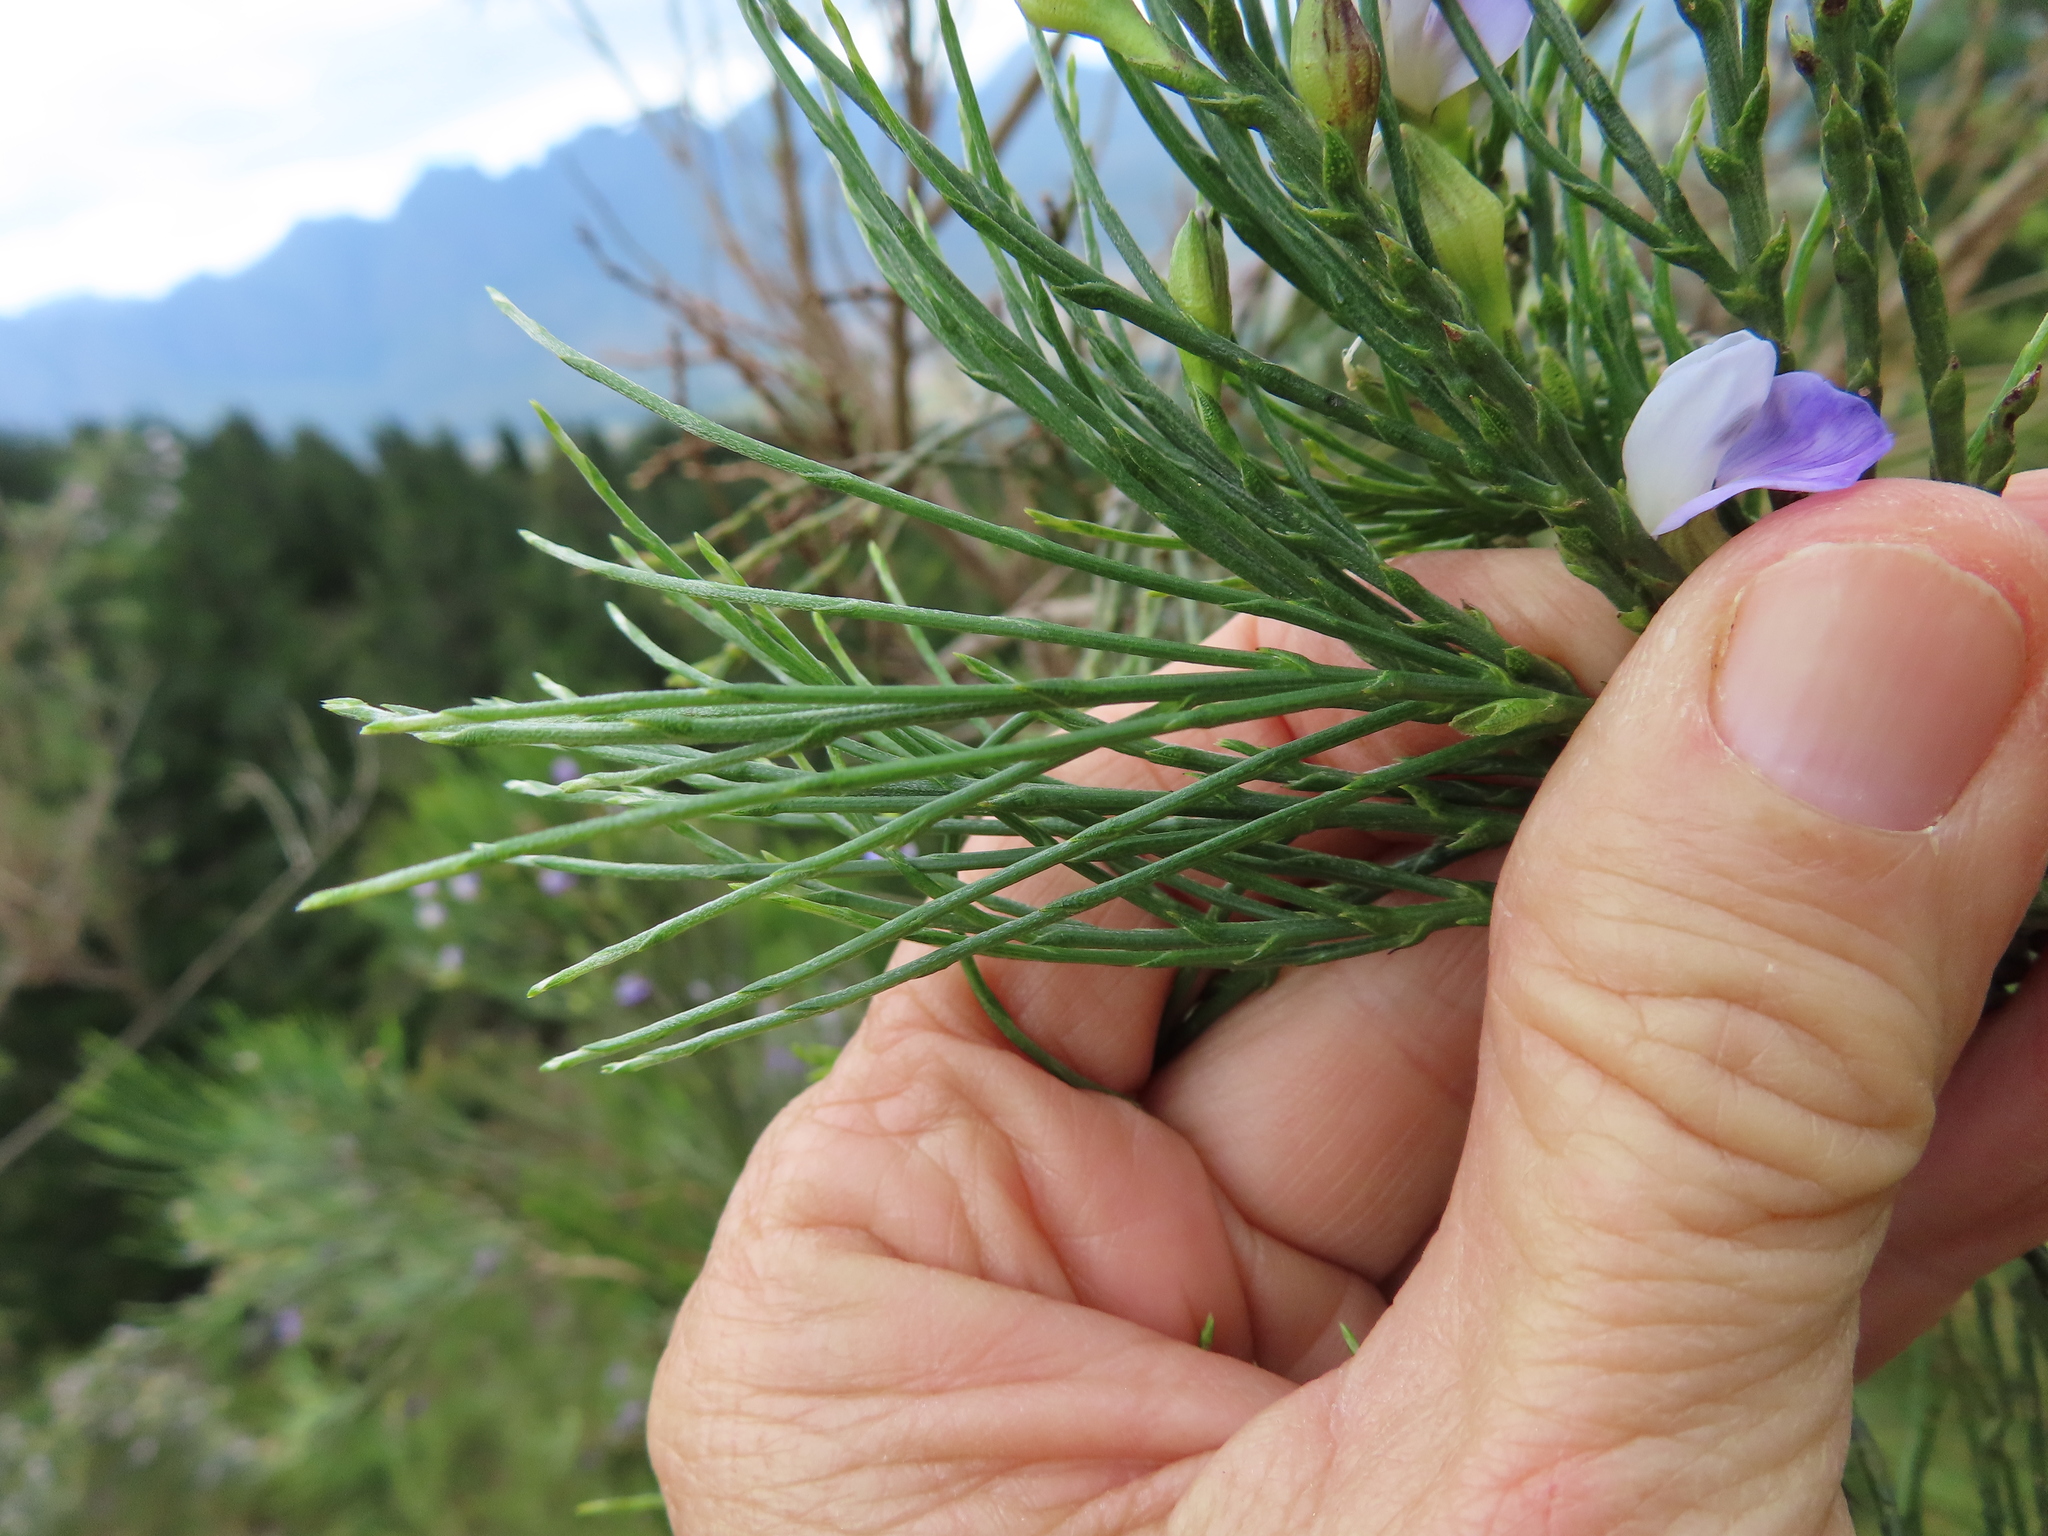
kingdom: Plantae
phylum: Tracheophyta
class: Magnoliopsida
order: Fabales
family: Fabaceae
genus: Psoralea
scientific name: Psoralea aphylla
